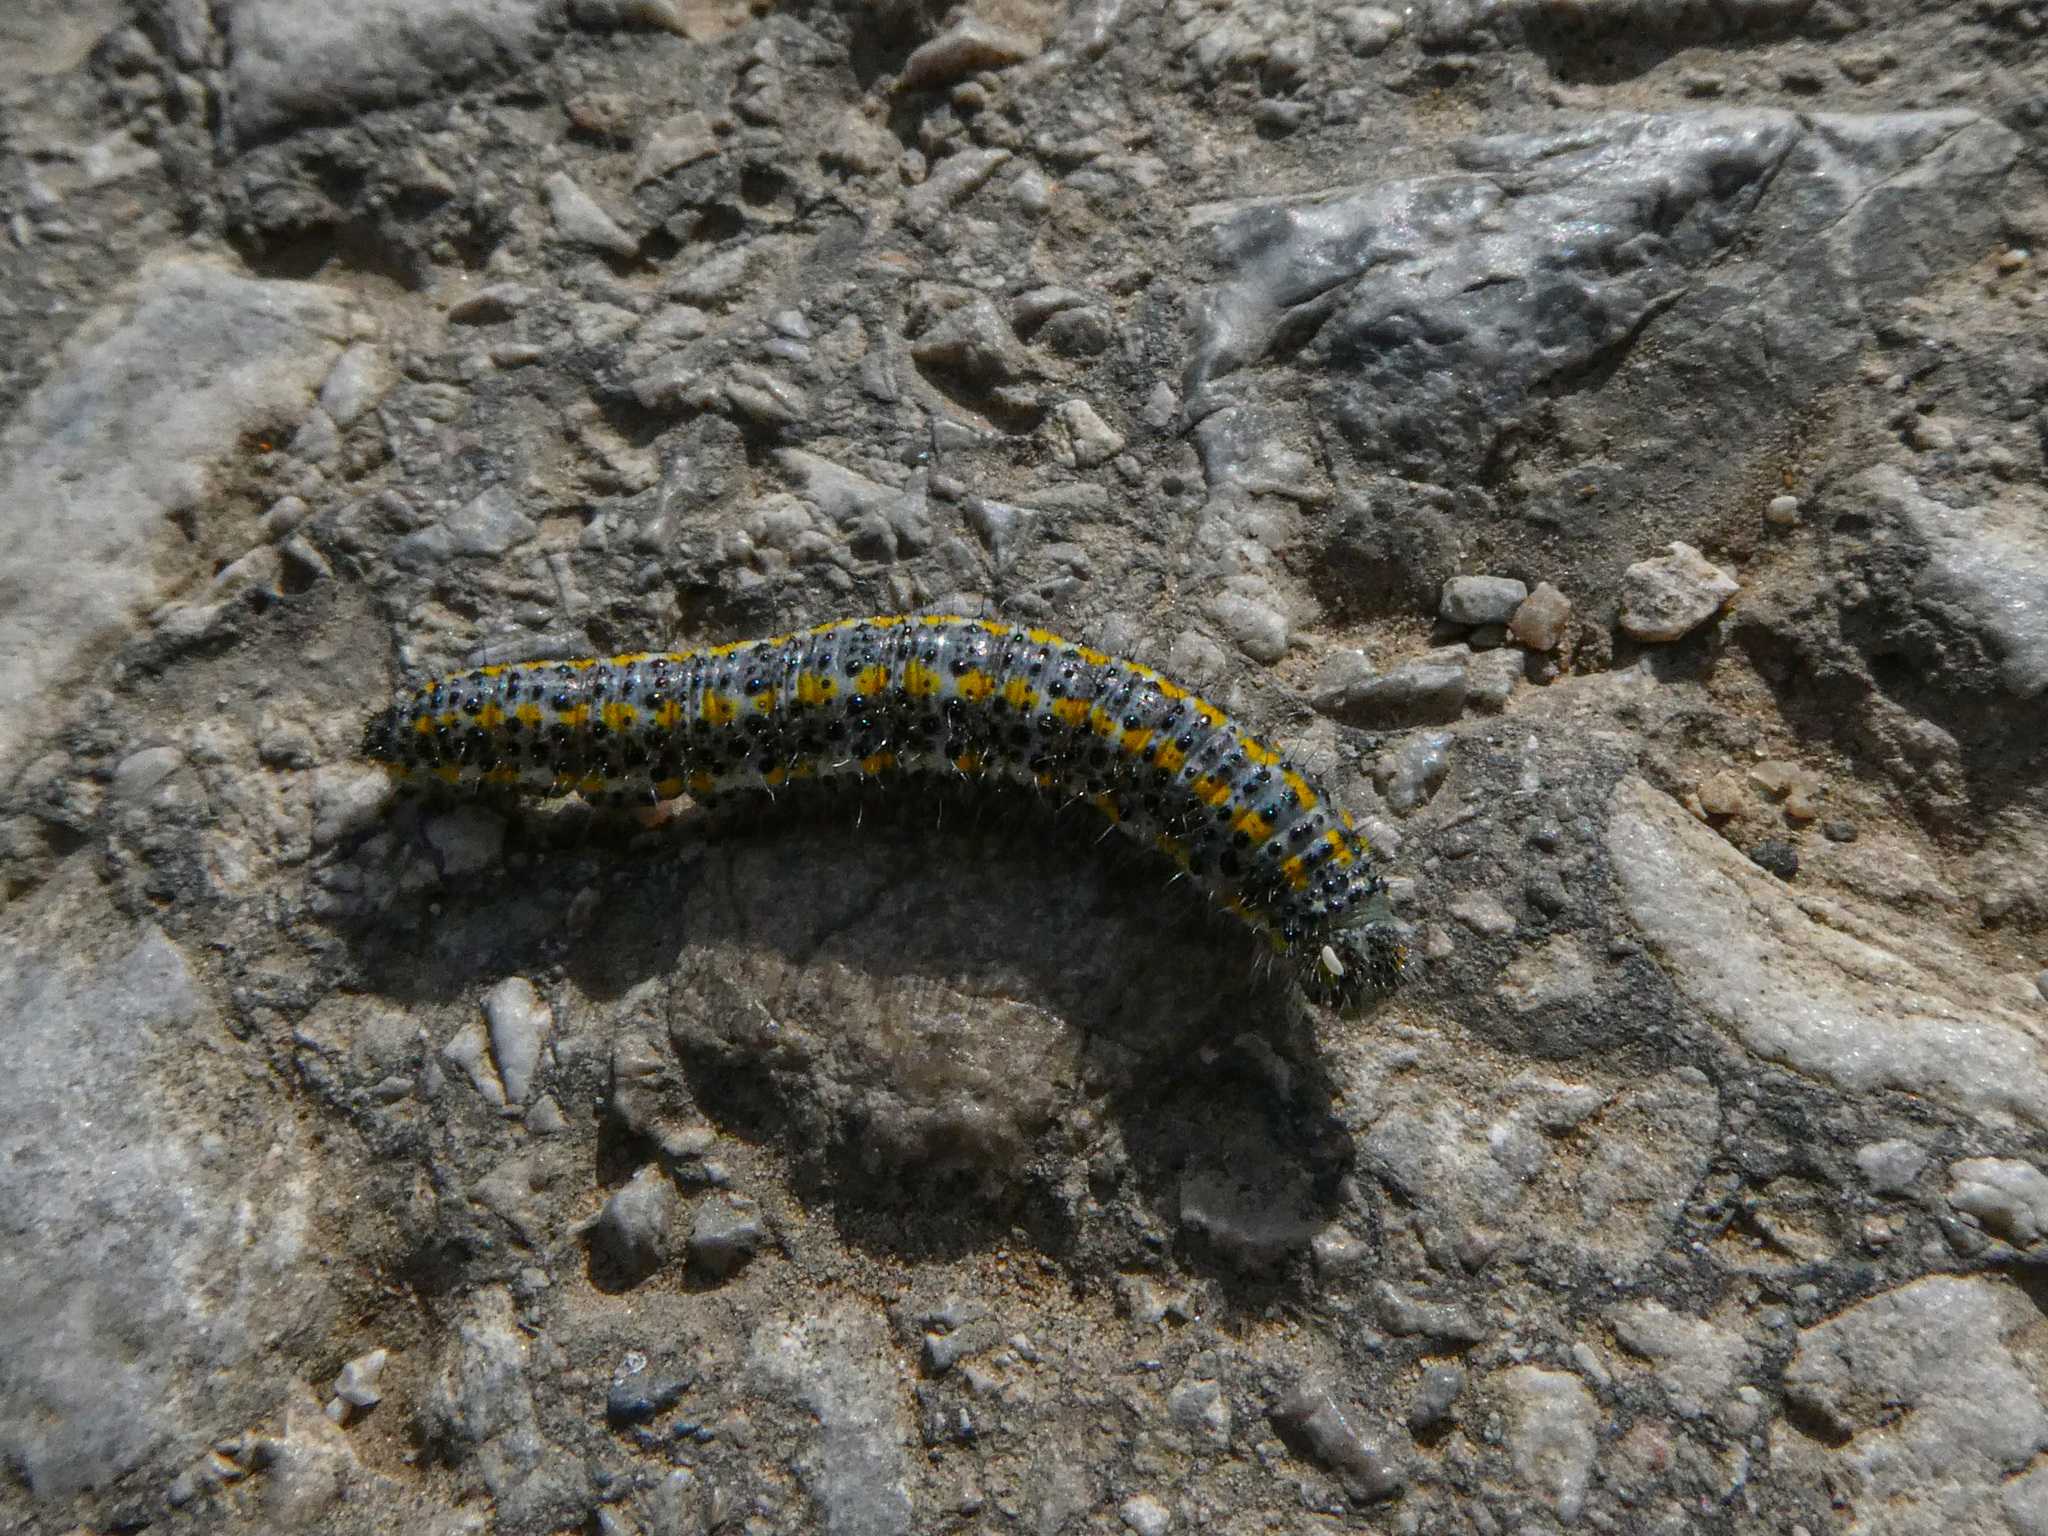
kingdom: Animalia
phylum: Arthropoda
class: Insecta
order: Lepidoptera
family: Pieridae
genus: Pontia
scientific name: Pontia edusa
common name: Eastern bath white
